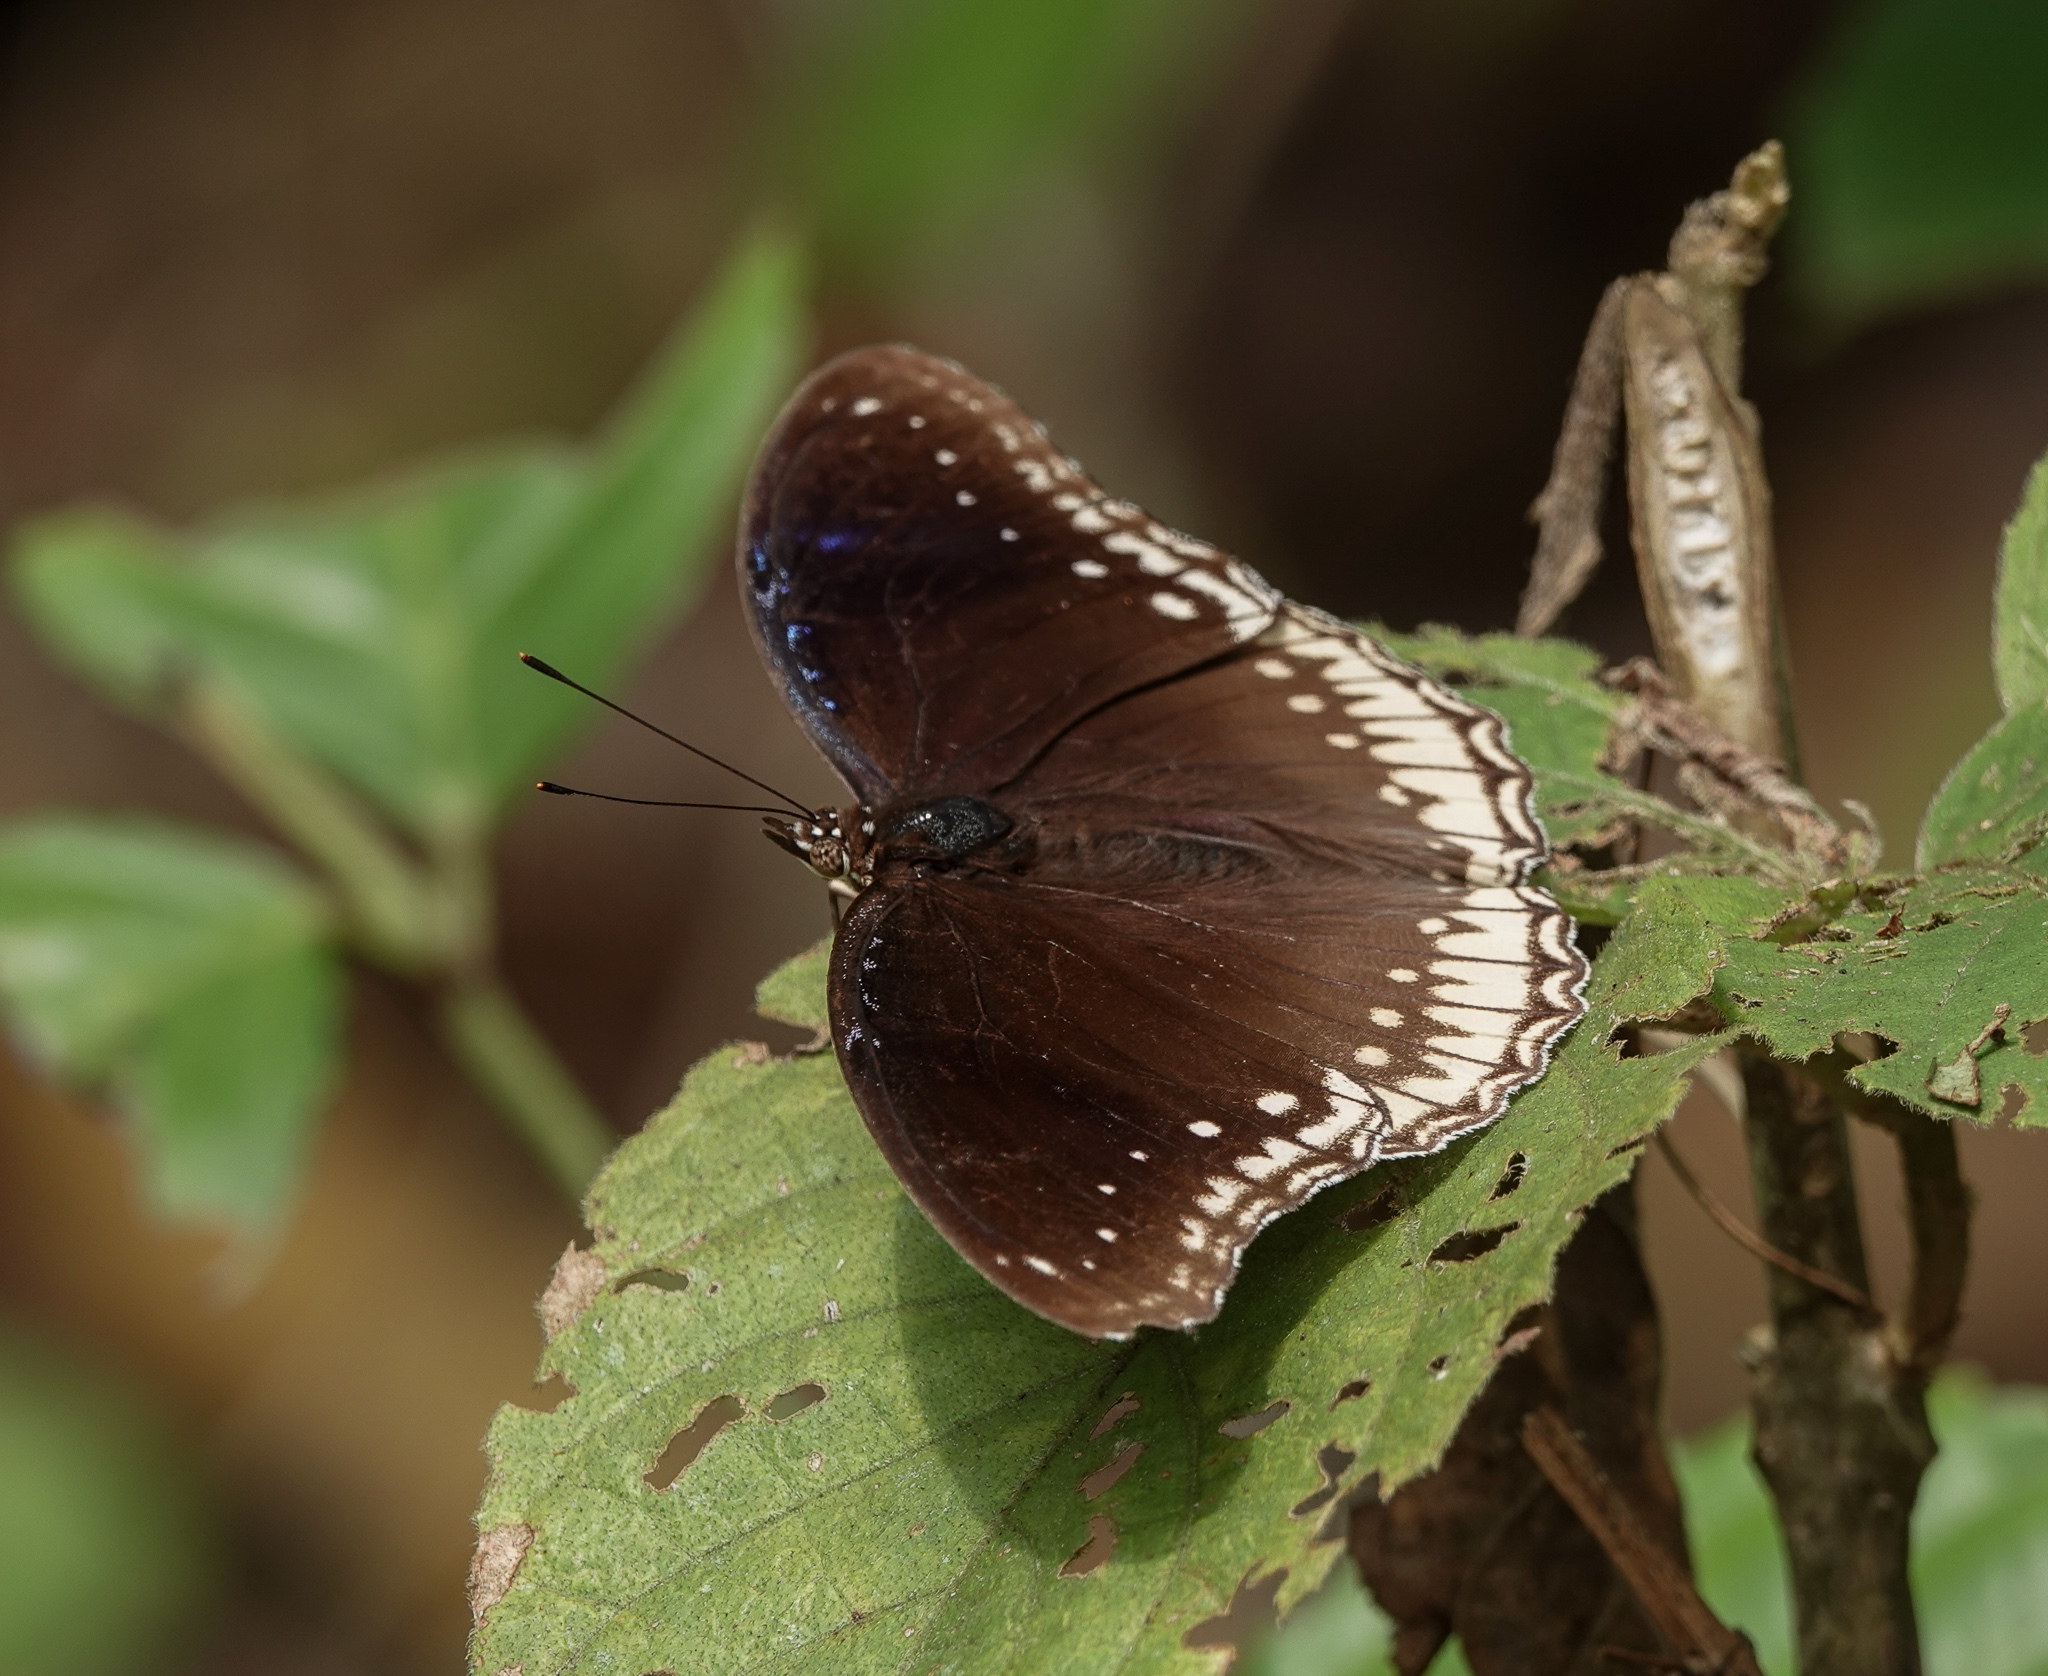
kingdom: Animalia
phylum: Arthropoda
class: Insecta
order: Lepidoptera
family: Nymphalidae
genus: Hypolimnas
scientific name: Hypolimnas bolina
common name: Great eggfly
